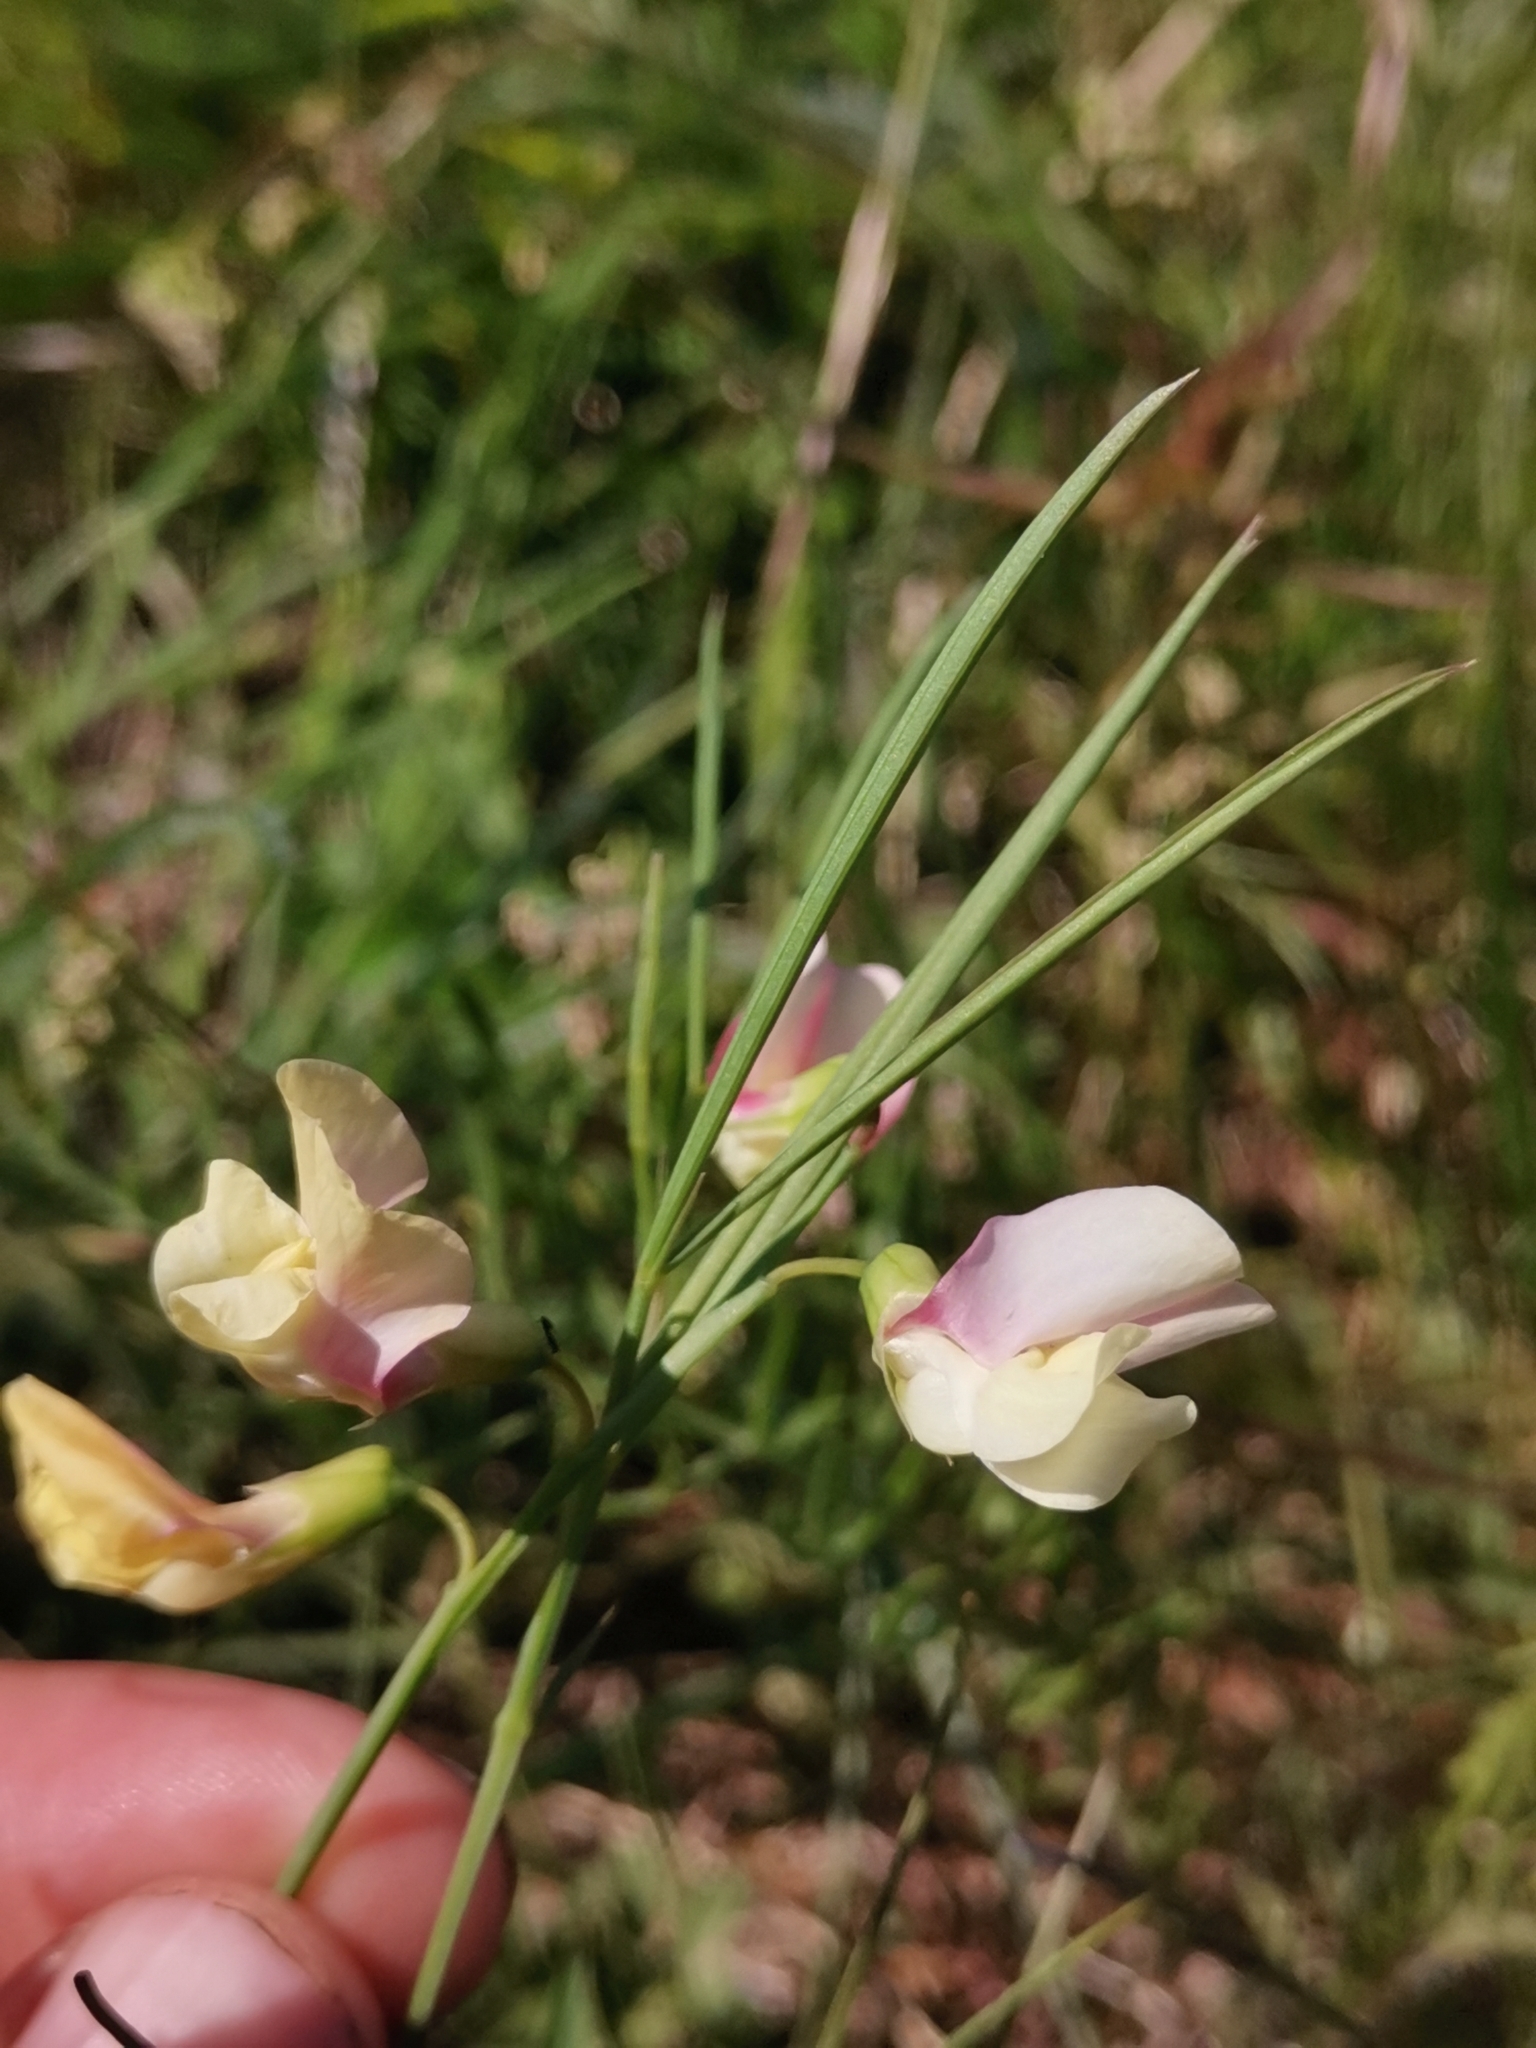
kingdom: Plantae
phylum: Tracheophyta
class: Magnoliopsida
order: Fabales
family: Fabaceae
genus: Lathyrus
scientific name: Lathyrus pannonicus
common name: Pea
